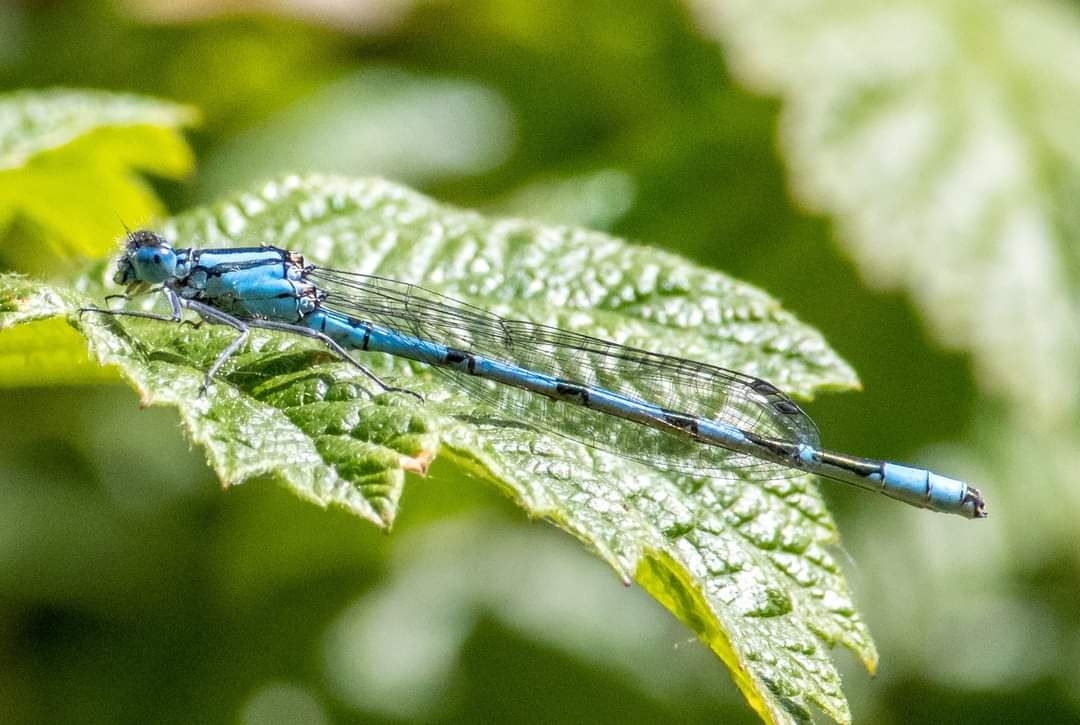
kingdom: Animalia
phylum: Arthropoda
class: Insecta
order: Odonata
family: Coenagrionidae
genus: Enallagma
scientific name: Enallagma cyathigerum
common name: Common blue damselfly
